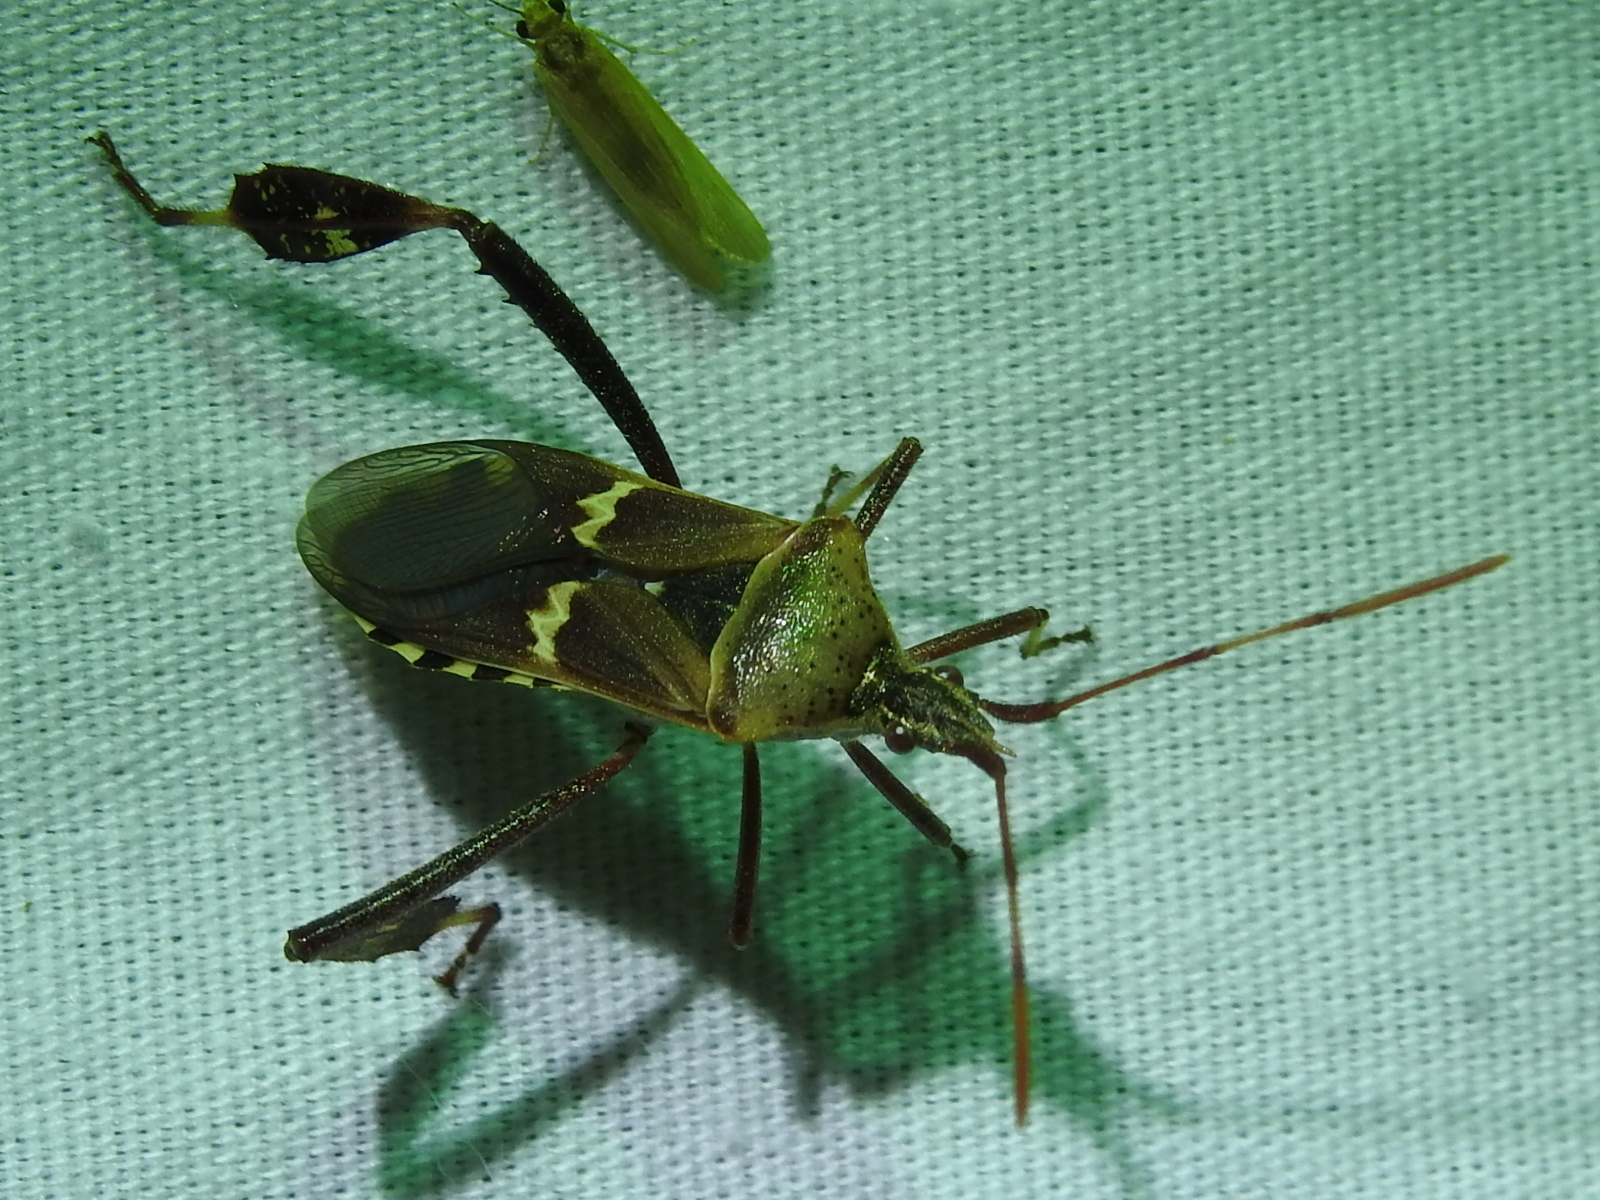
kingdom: Animalia
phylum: Arthropoda
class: Insecta
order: Hemiptera
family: Coreidae
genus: Leptoglossus
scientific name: Leptoglossus clypealis
